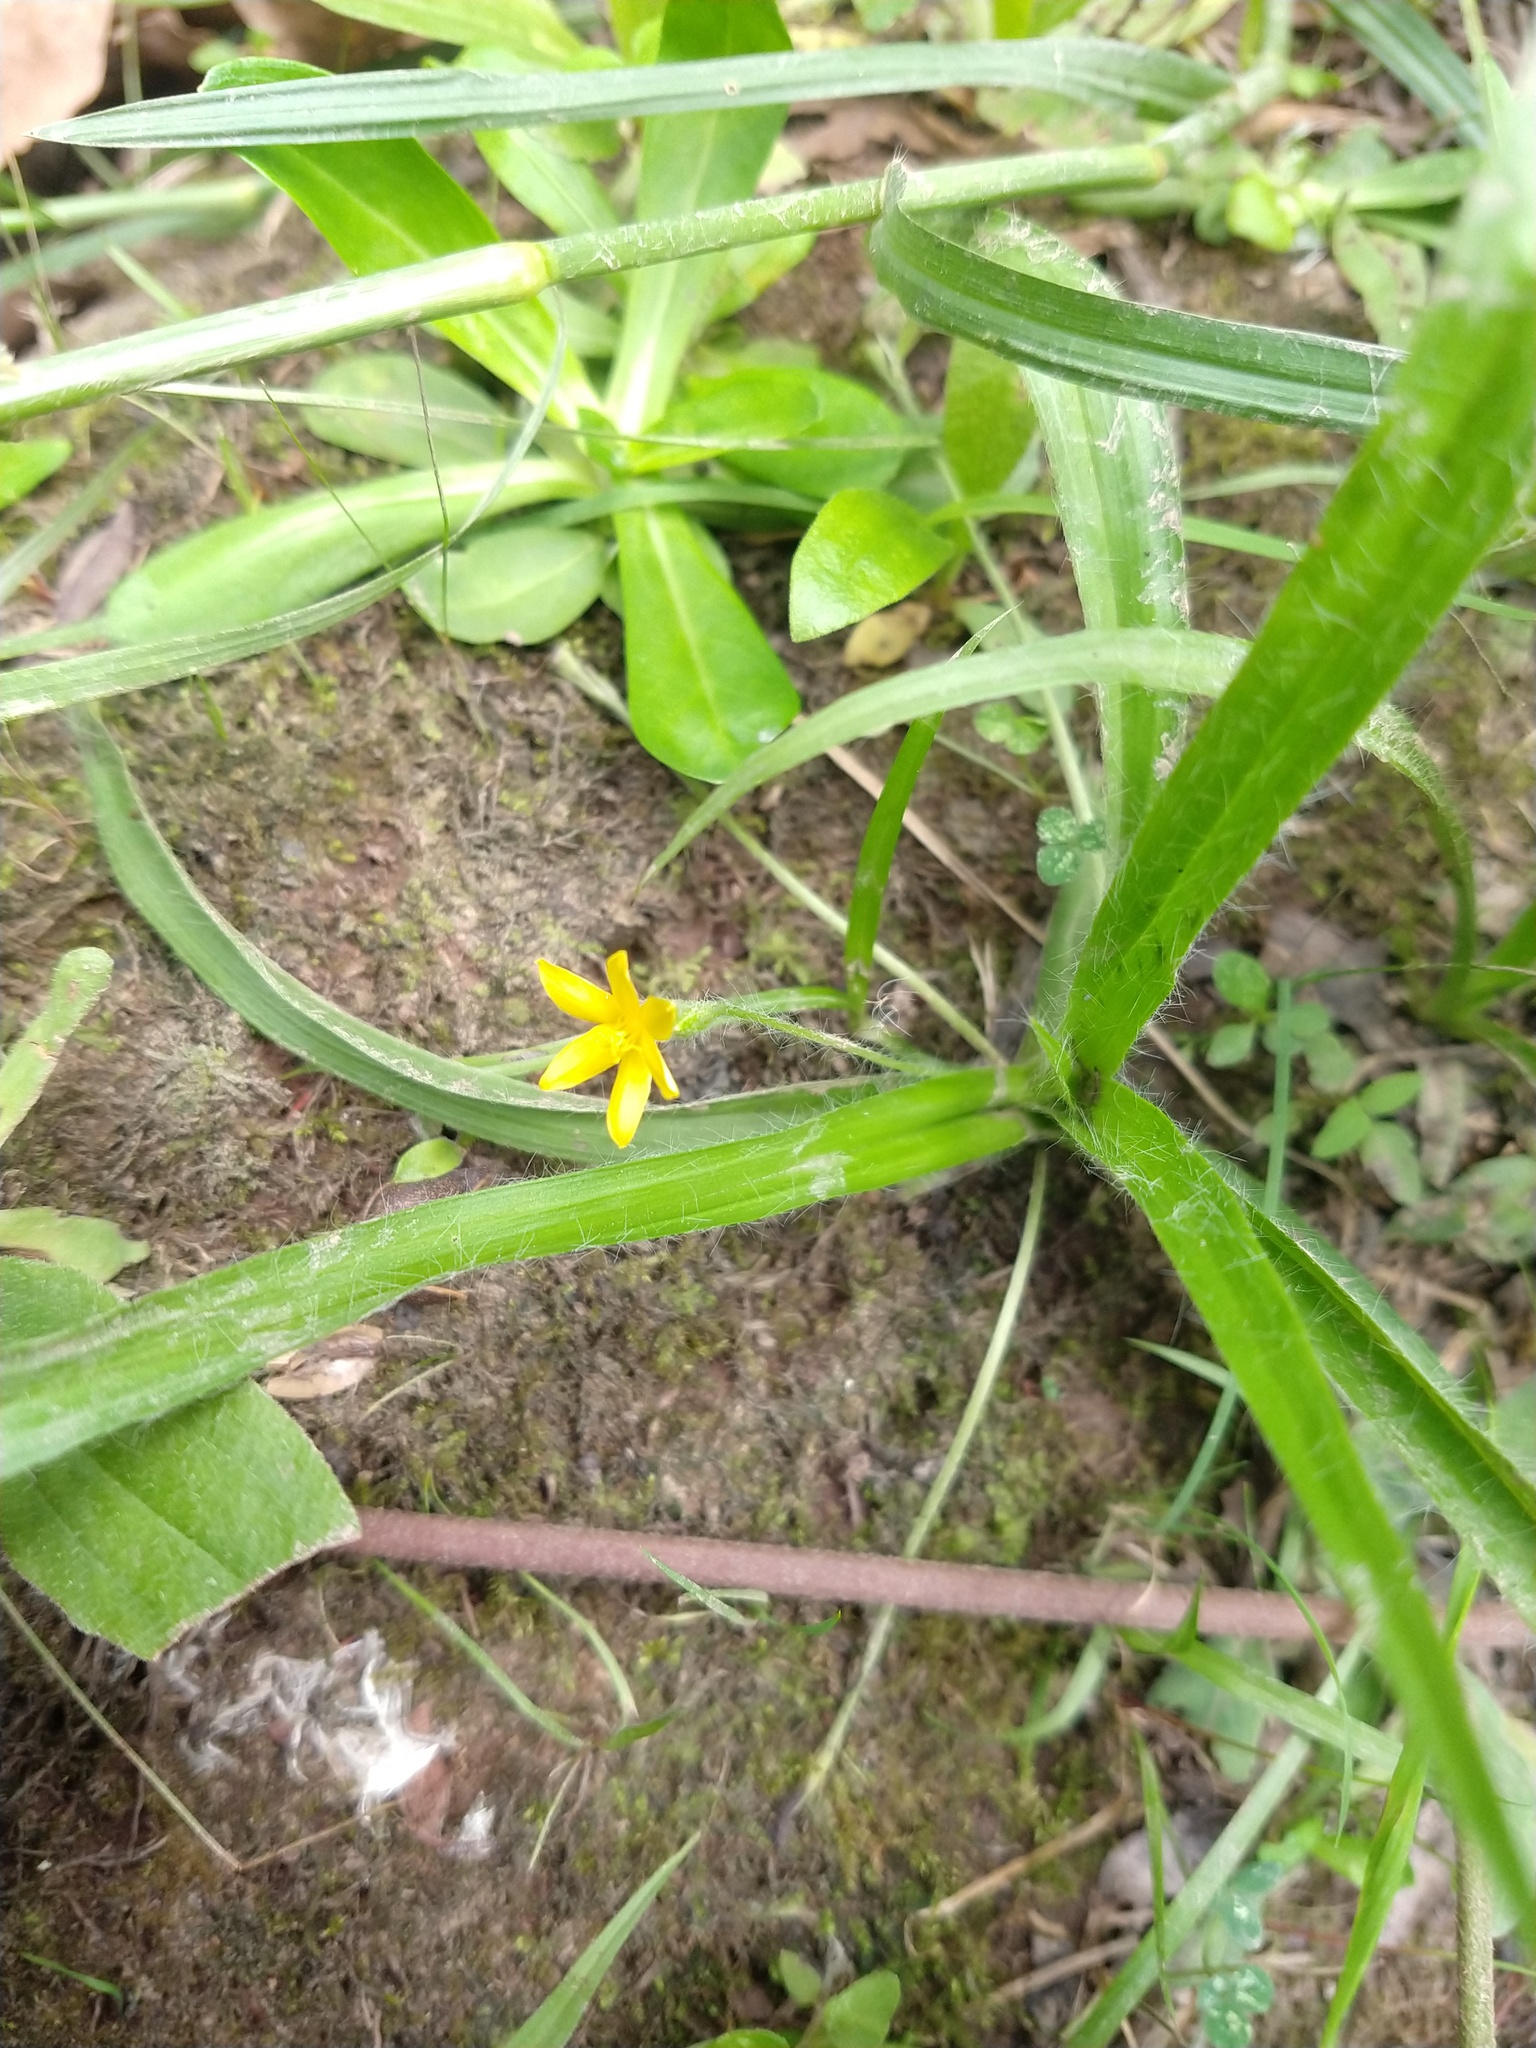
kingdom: Plantae
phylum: Tracheophyta
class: Liliopsida
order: Asparagales
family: Hypoxidaceae
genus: Hypoxis
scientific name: Hypoxis decumbens
